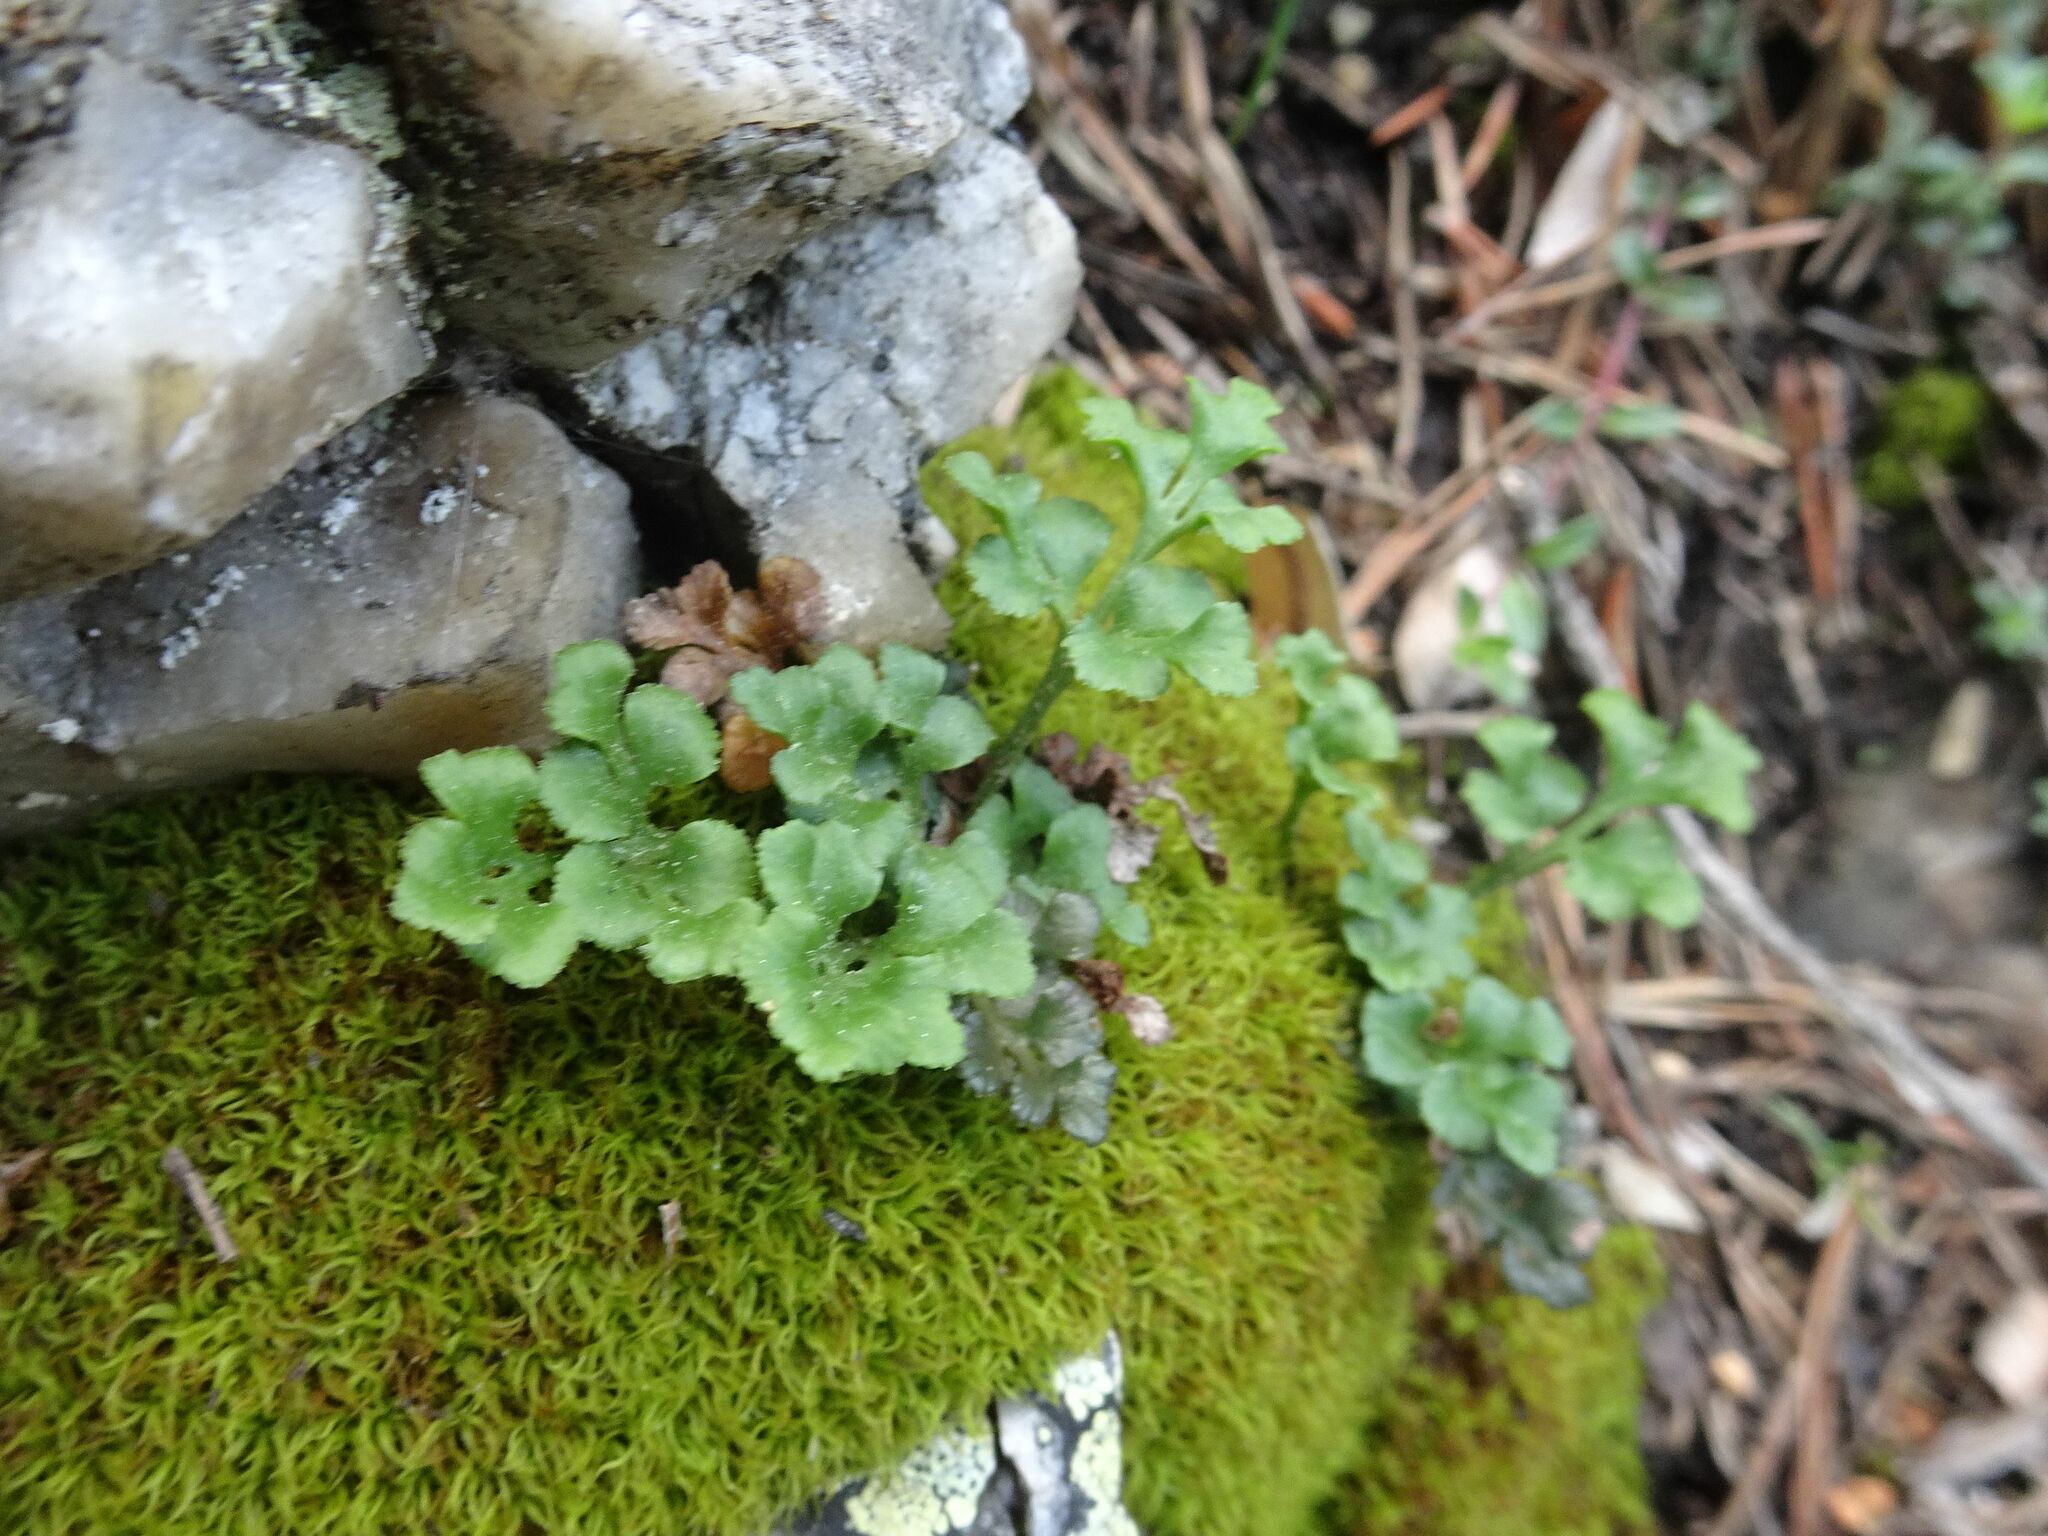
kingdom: Plantae
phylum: Tracheophyta
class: Polypodiopsida
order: Polypodiales
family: Aspleniaceae
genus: Asplenium
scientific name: Asplenium ruta-muraria
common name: Wall-rue
